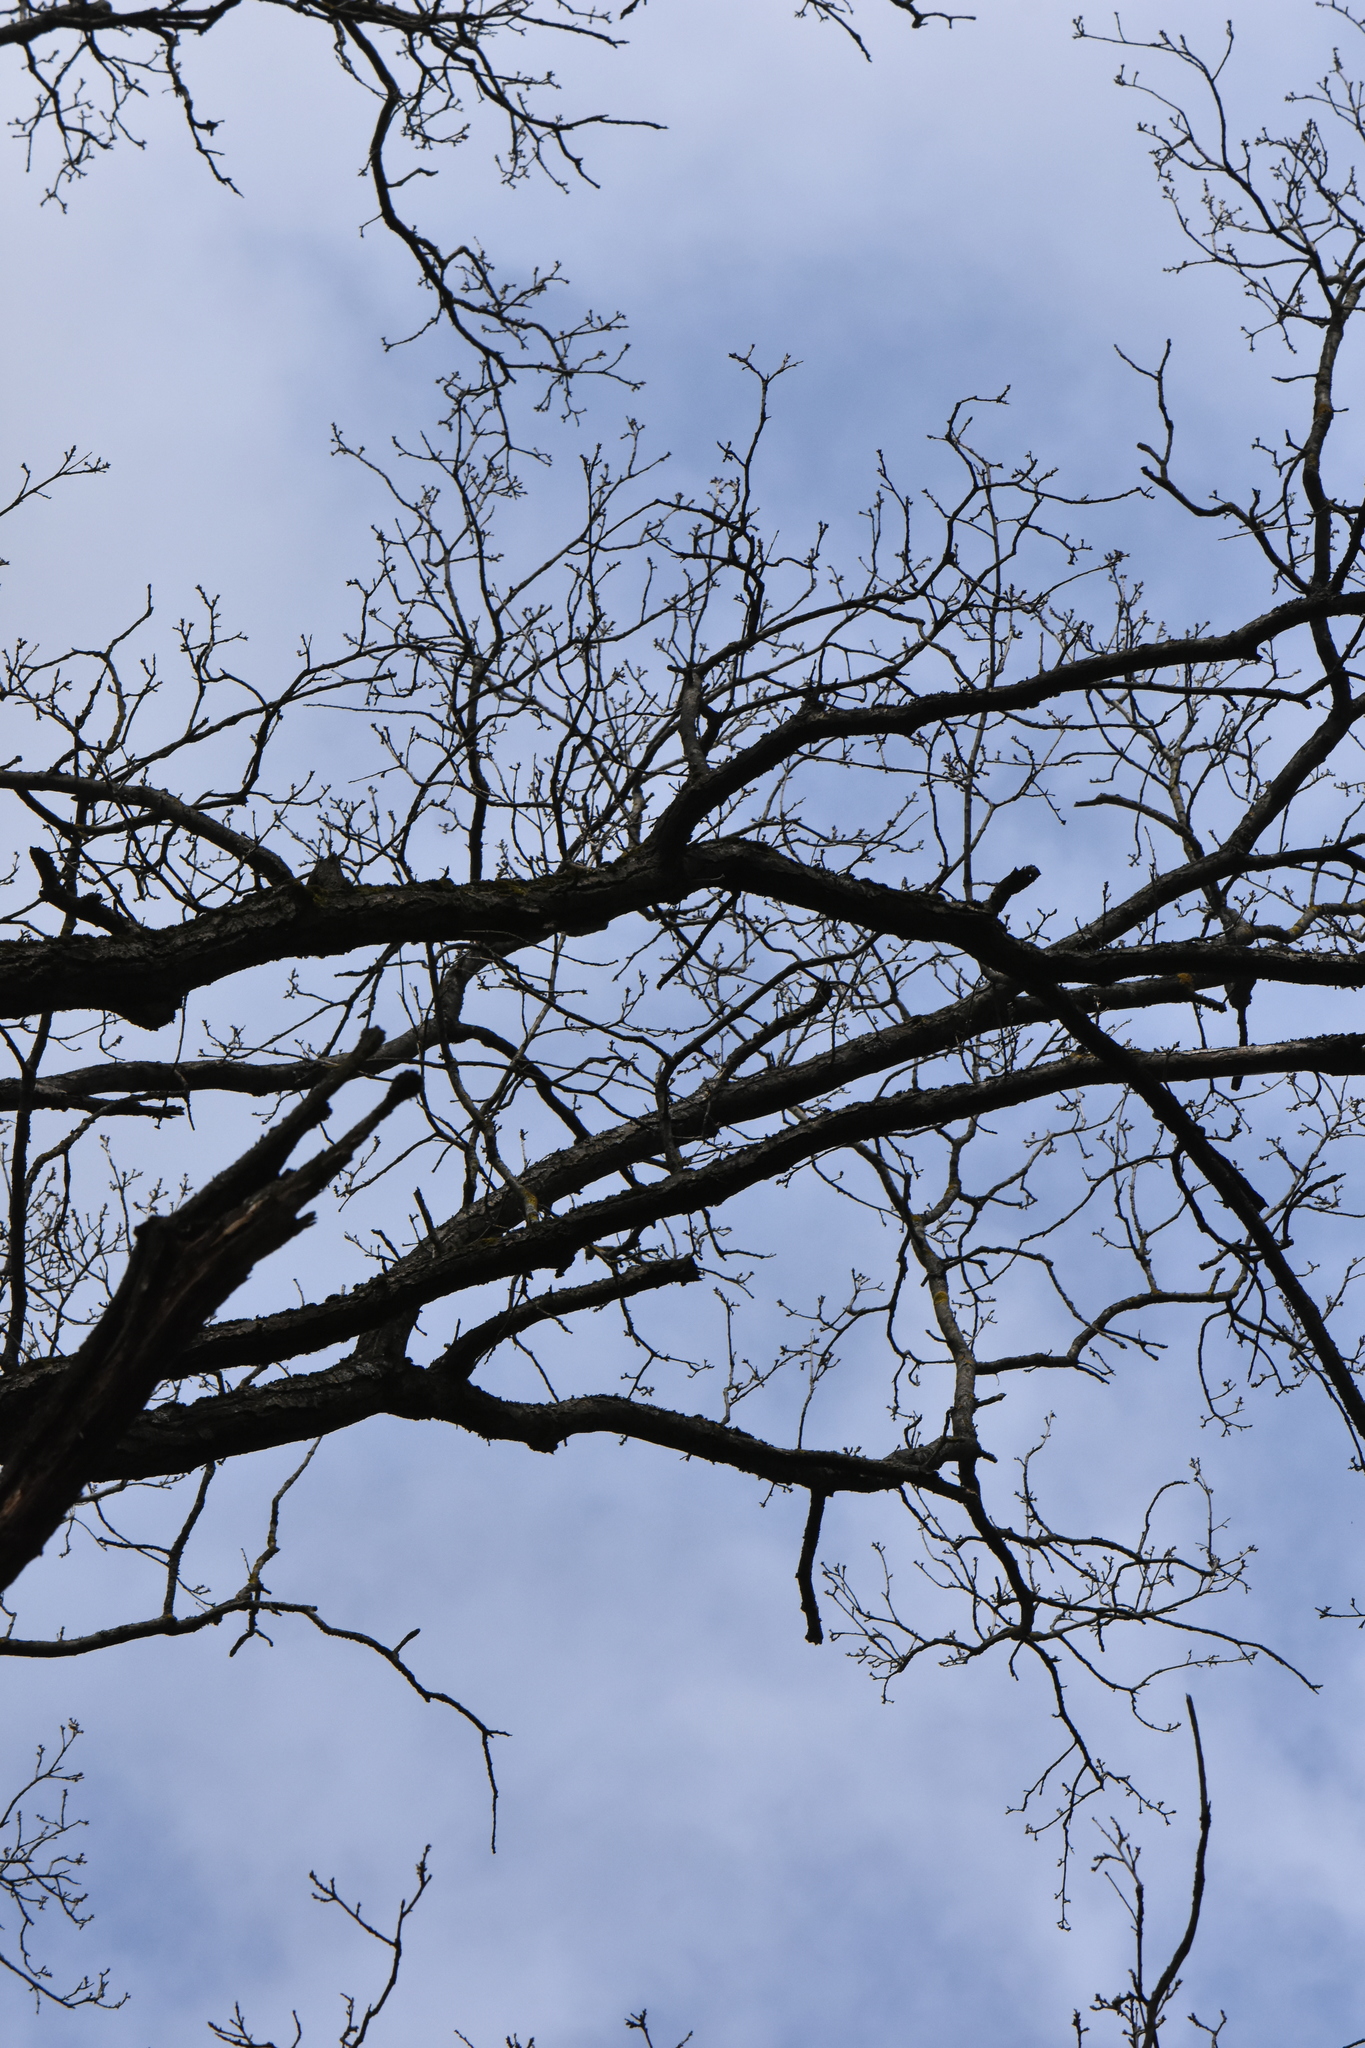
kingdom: Plantae
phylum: Tracheophyta
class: Magnoliopsida
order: Fagales
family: Fagaceae
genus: Quercus
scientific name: Quercus robur
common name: Pedunculate oak
